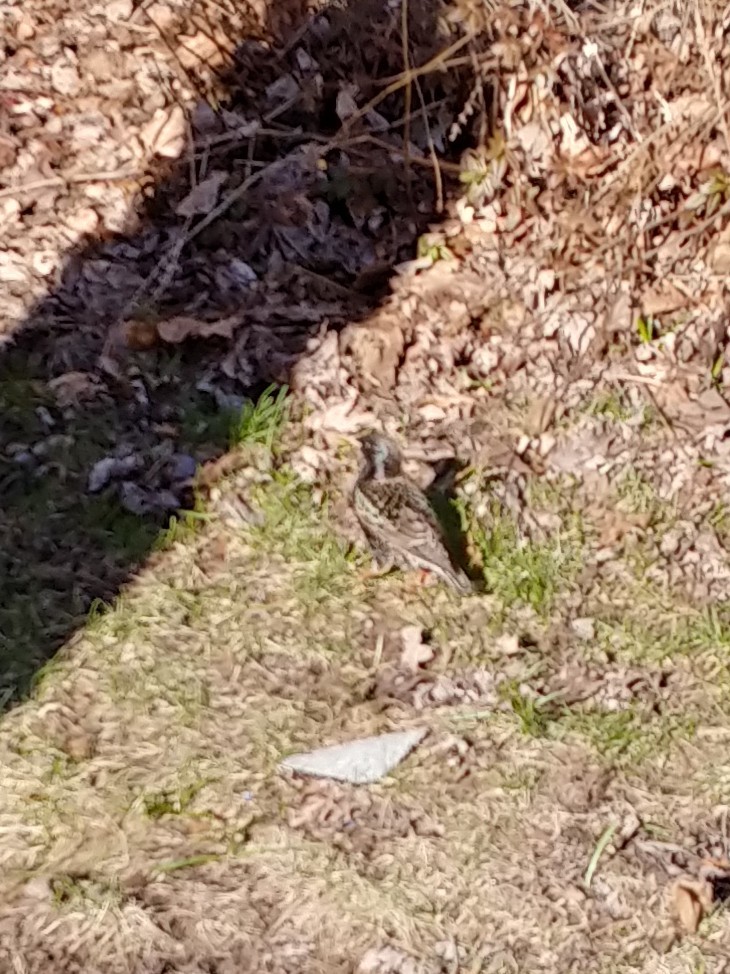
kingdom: Animalia
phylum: Chordata
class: Aves
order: Passeriformes
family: Sturnidae
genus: Sturnus
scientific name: Sturnus vulgaris
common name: Common starling
